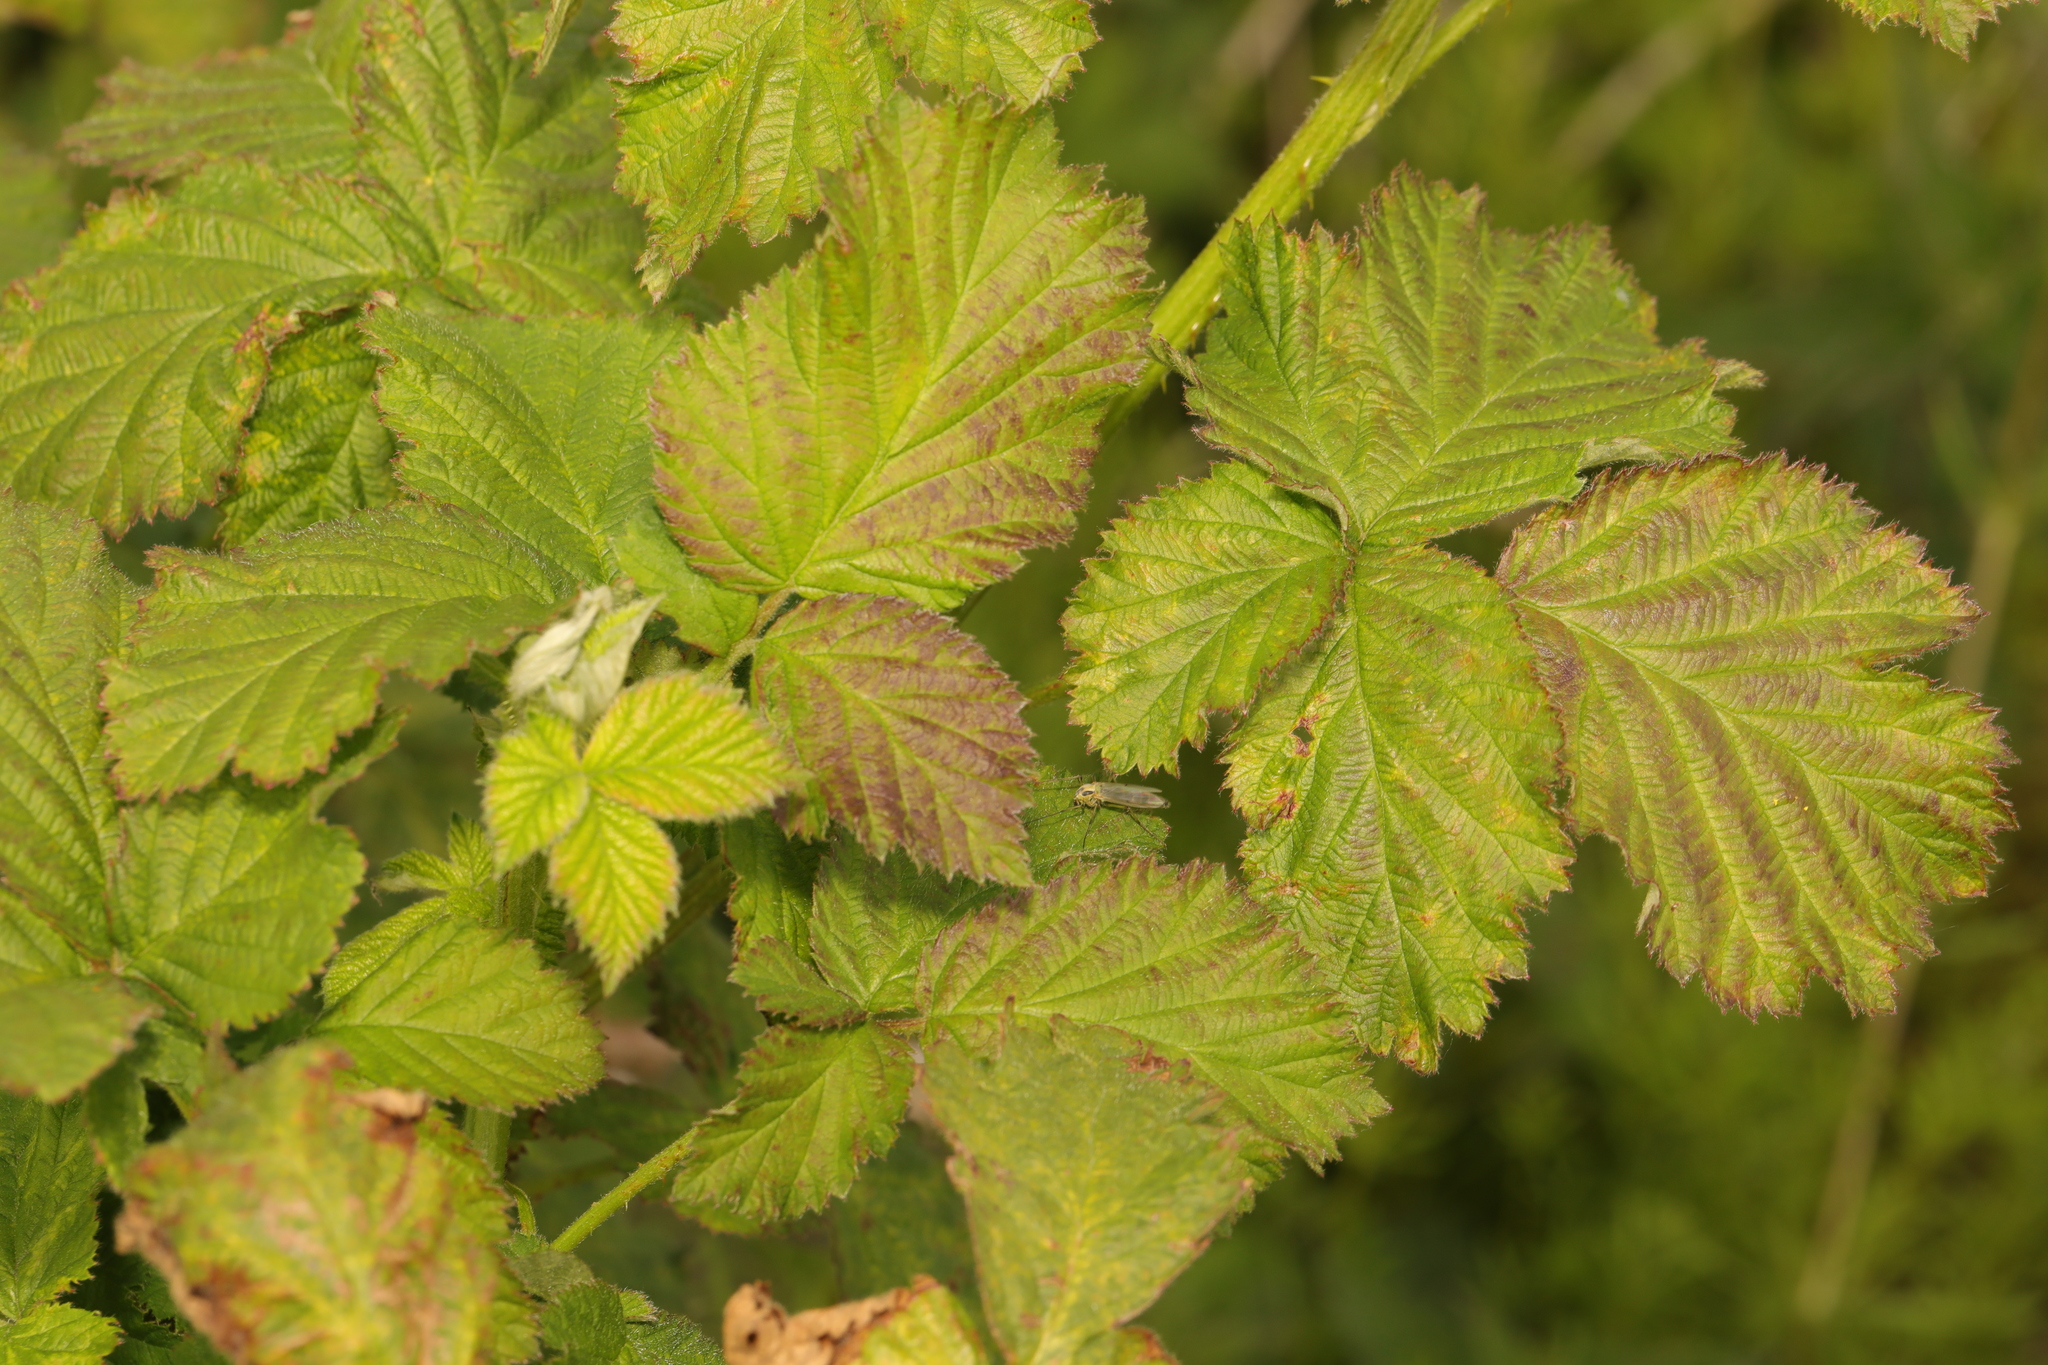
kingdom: Plantae
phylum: Tracheophyta
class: Magnoliopsida
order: Rosales
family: Rosaceae
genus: Rubus
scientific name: Rubus armeniacus
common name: Himalayan blackberry
